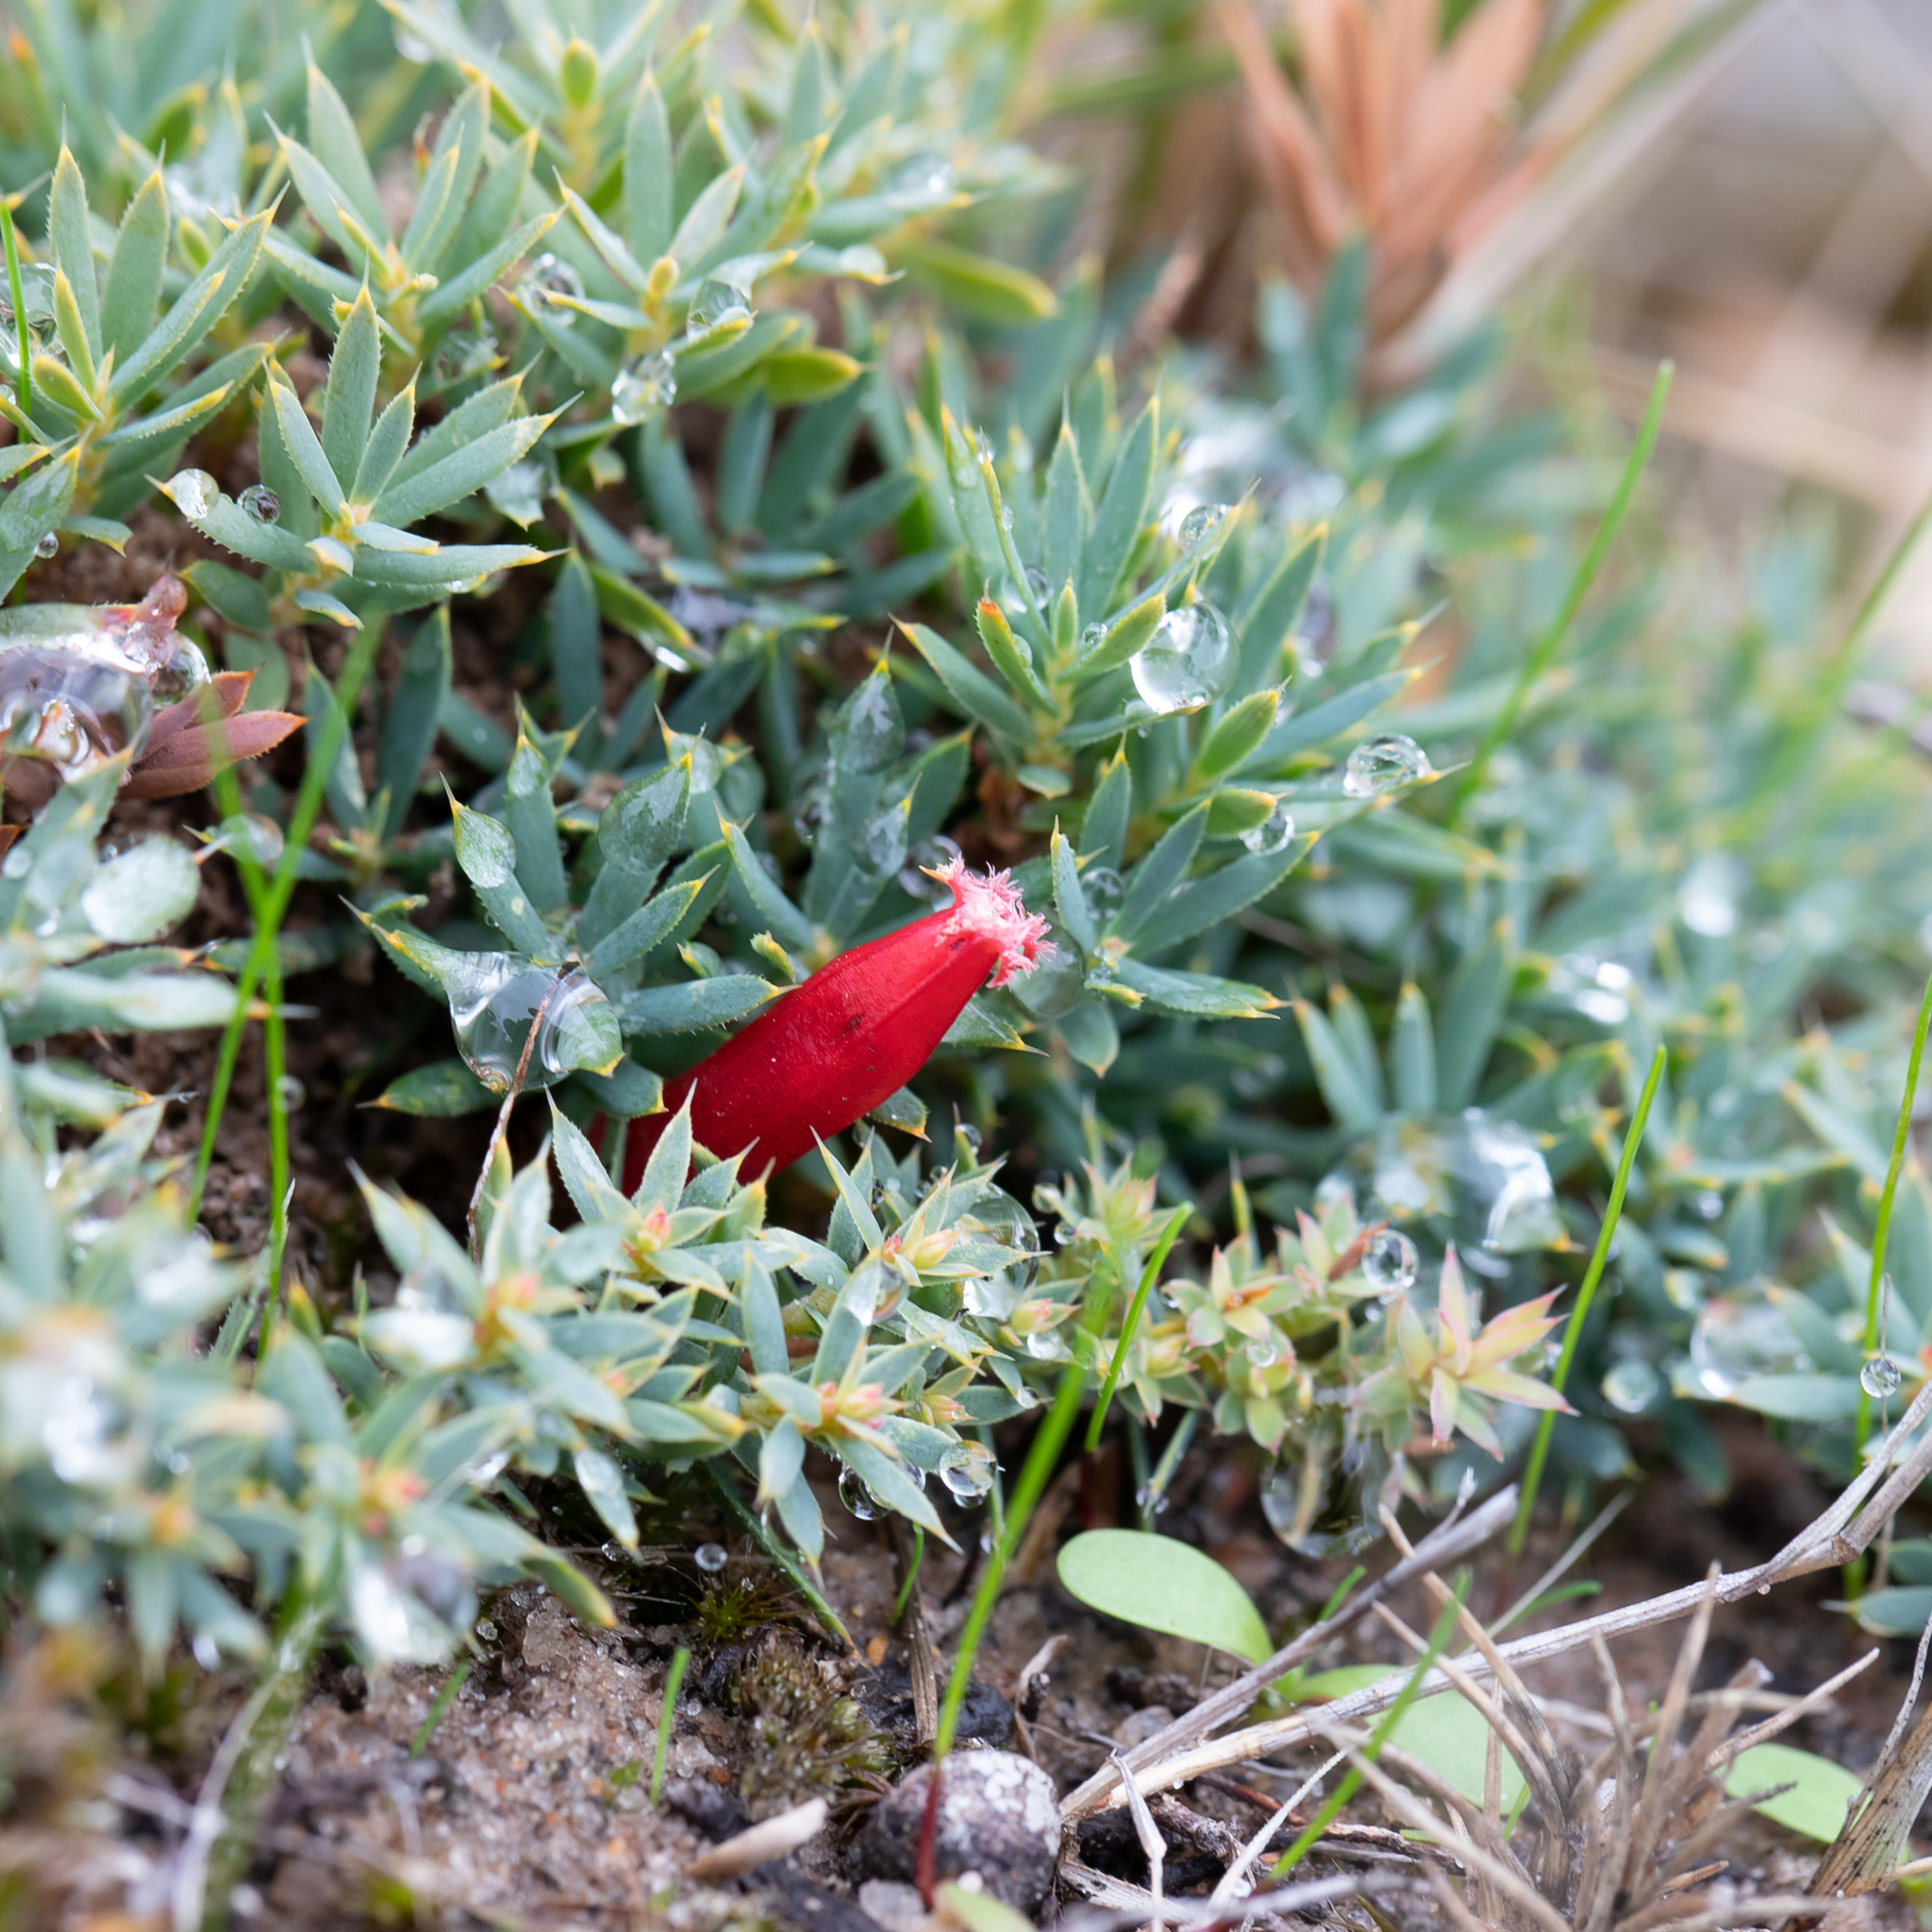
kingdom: Plantae
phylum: Tracheophyta
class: Magnoliopsida
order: Ericales
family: Ericaceae
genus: Styphelia
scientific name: Styphelia humifusa
